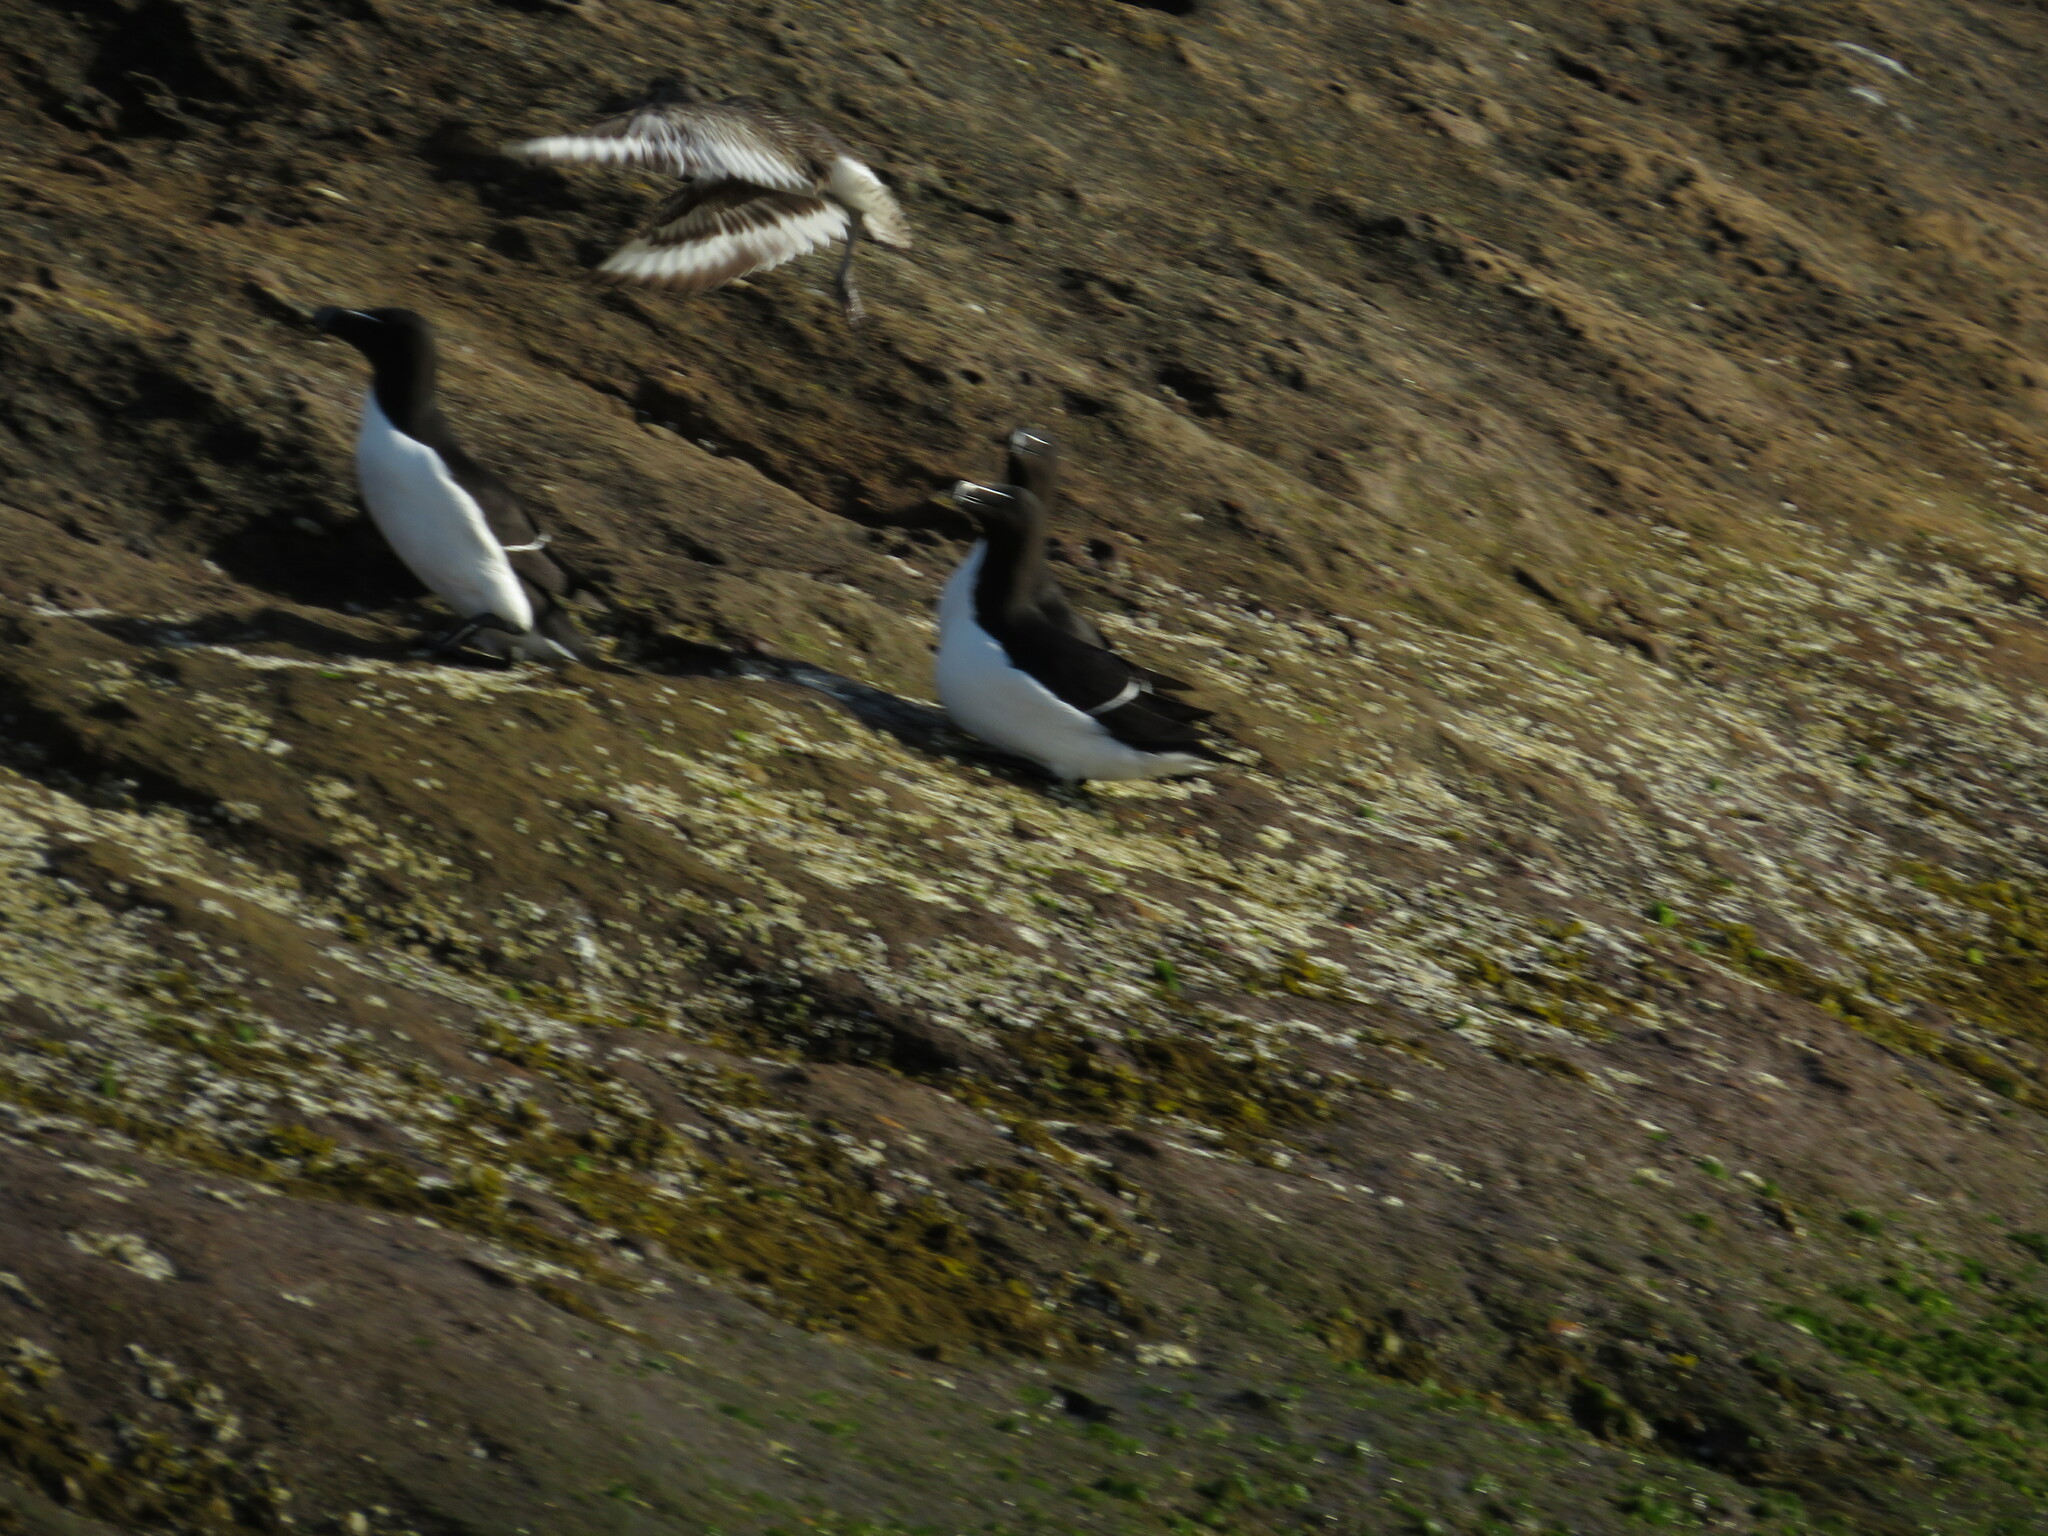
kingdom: Animalia
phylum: Chordata
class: Aves
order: Charadriiformes
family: Scolopacidae
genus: Tringa
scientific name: Tringa semipalmata
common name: Willet
